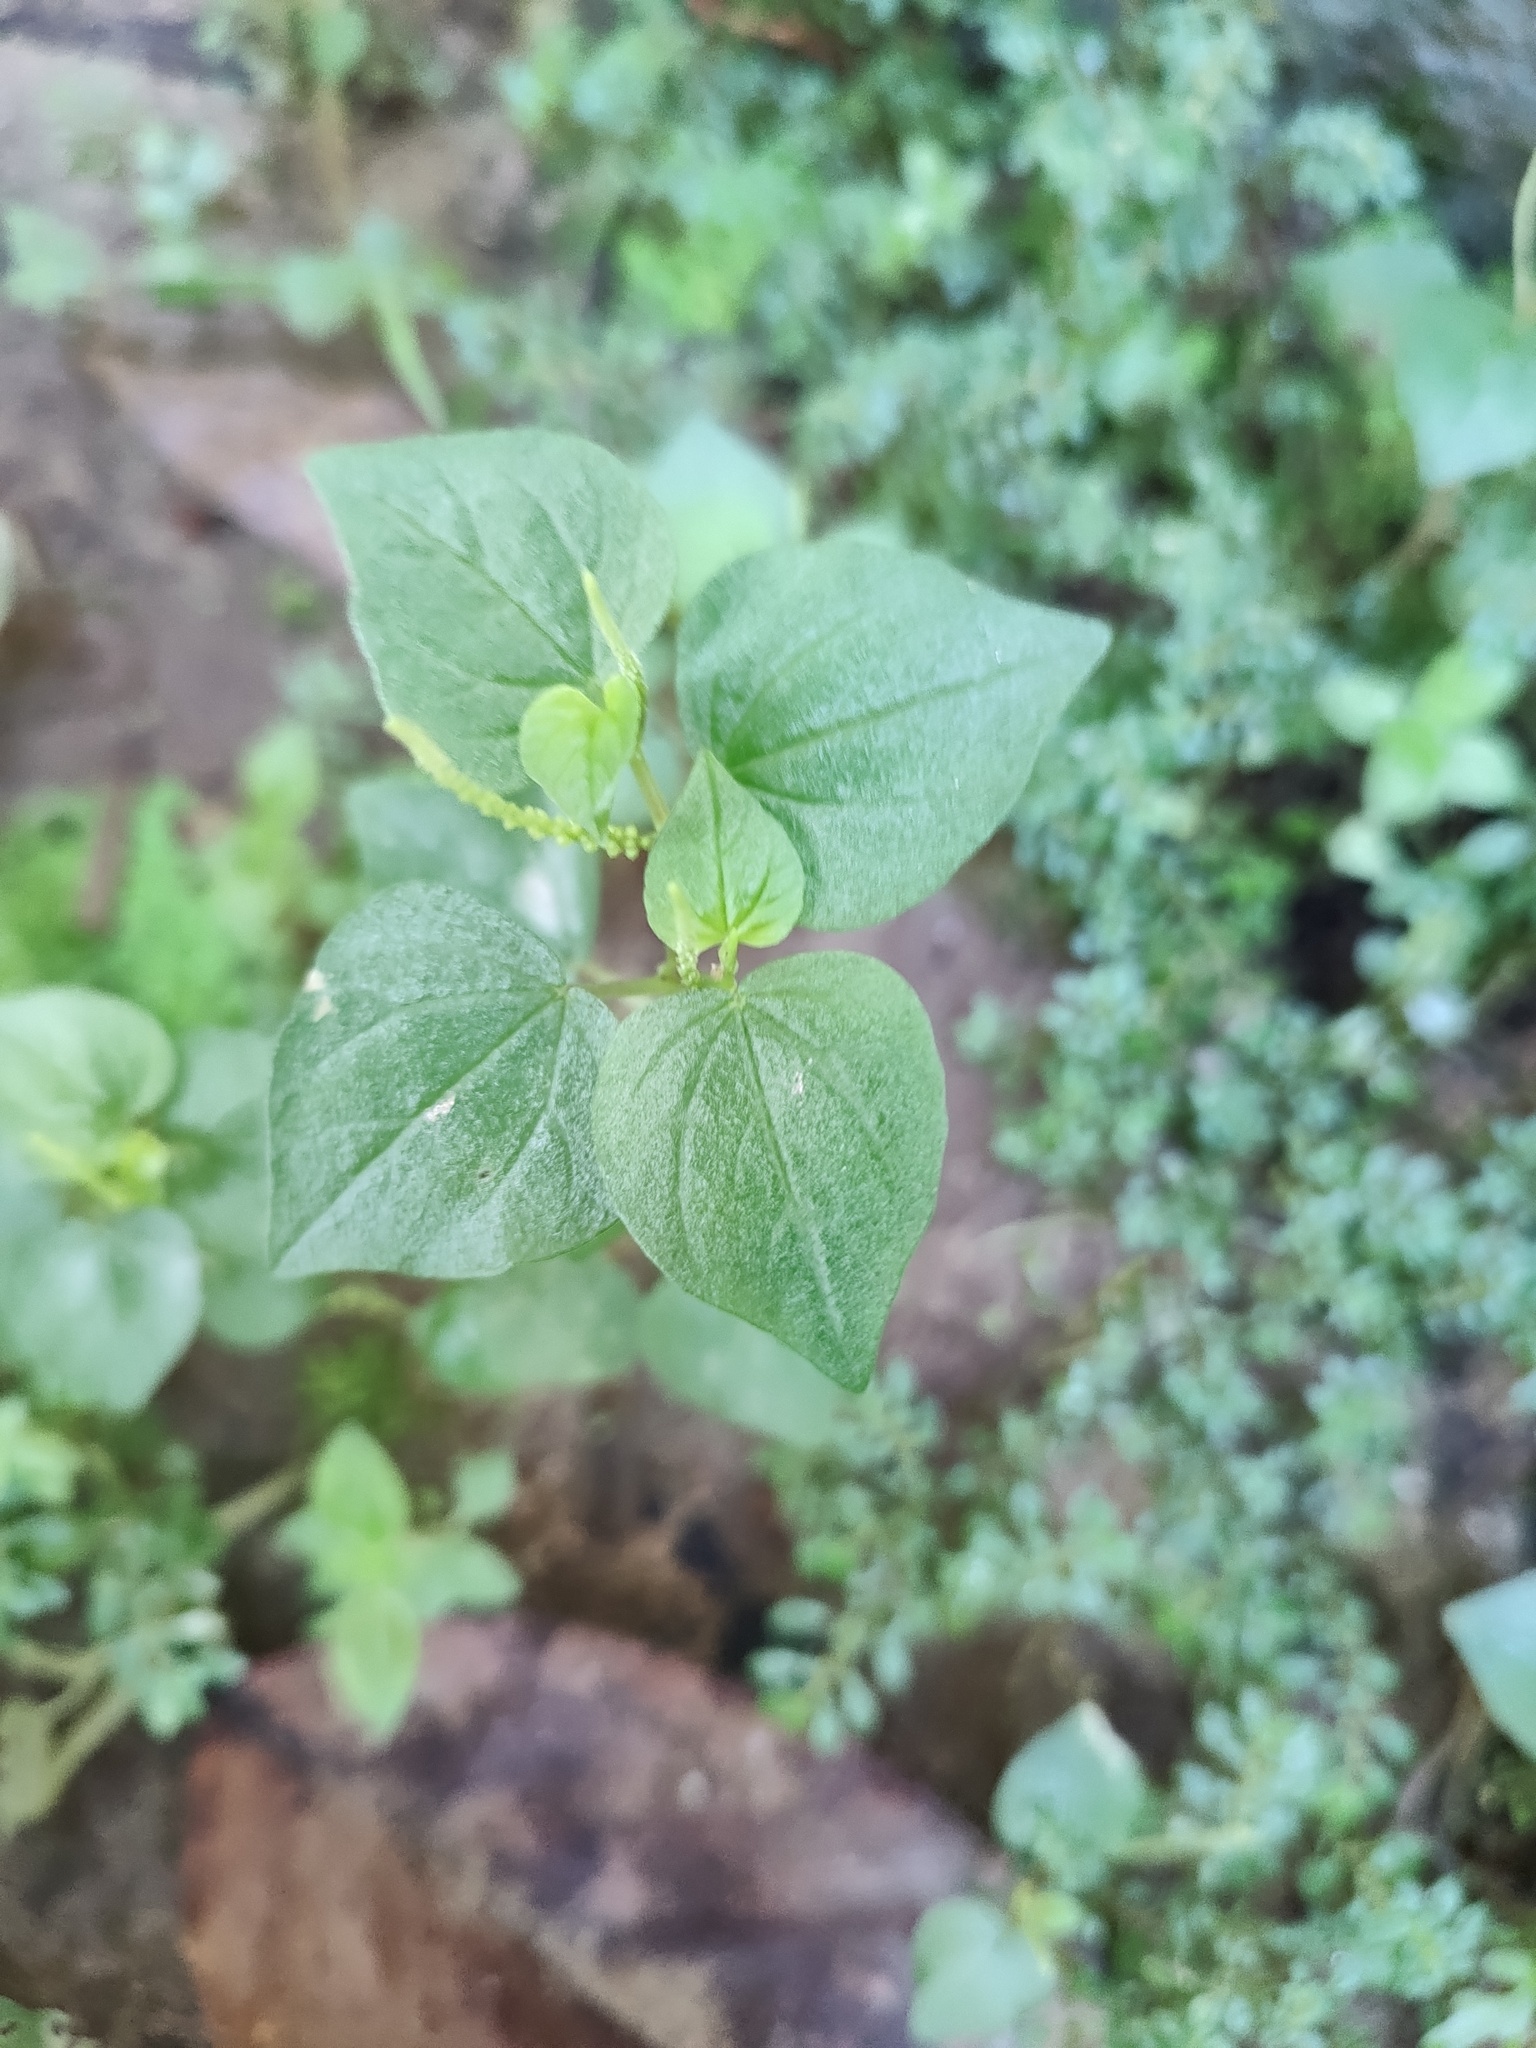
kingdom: Plantae
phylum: Tracheophyta
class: Magnoliopsida
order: Piperales
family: Piperaceae
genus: Peperomia
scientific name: Peperomia pellucida
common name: Man to man
